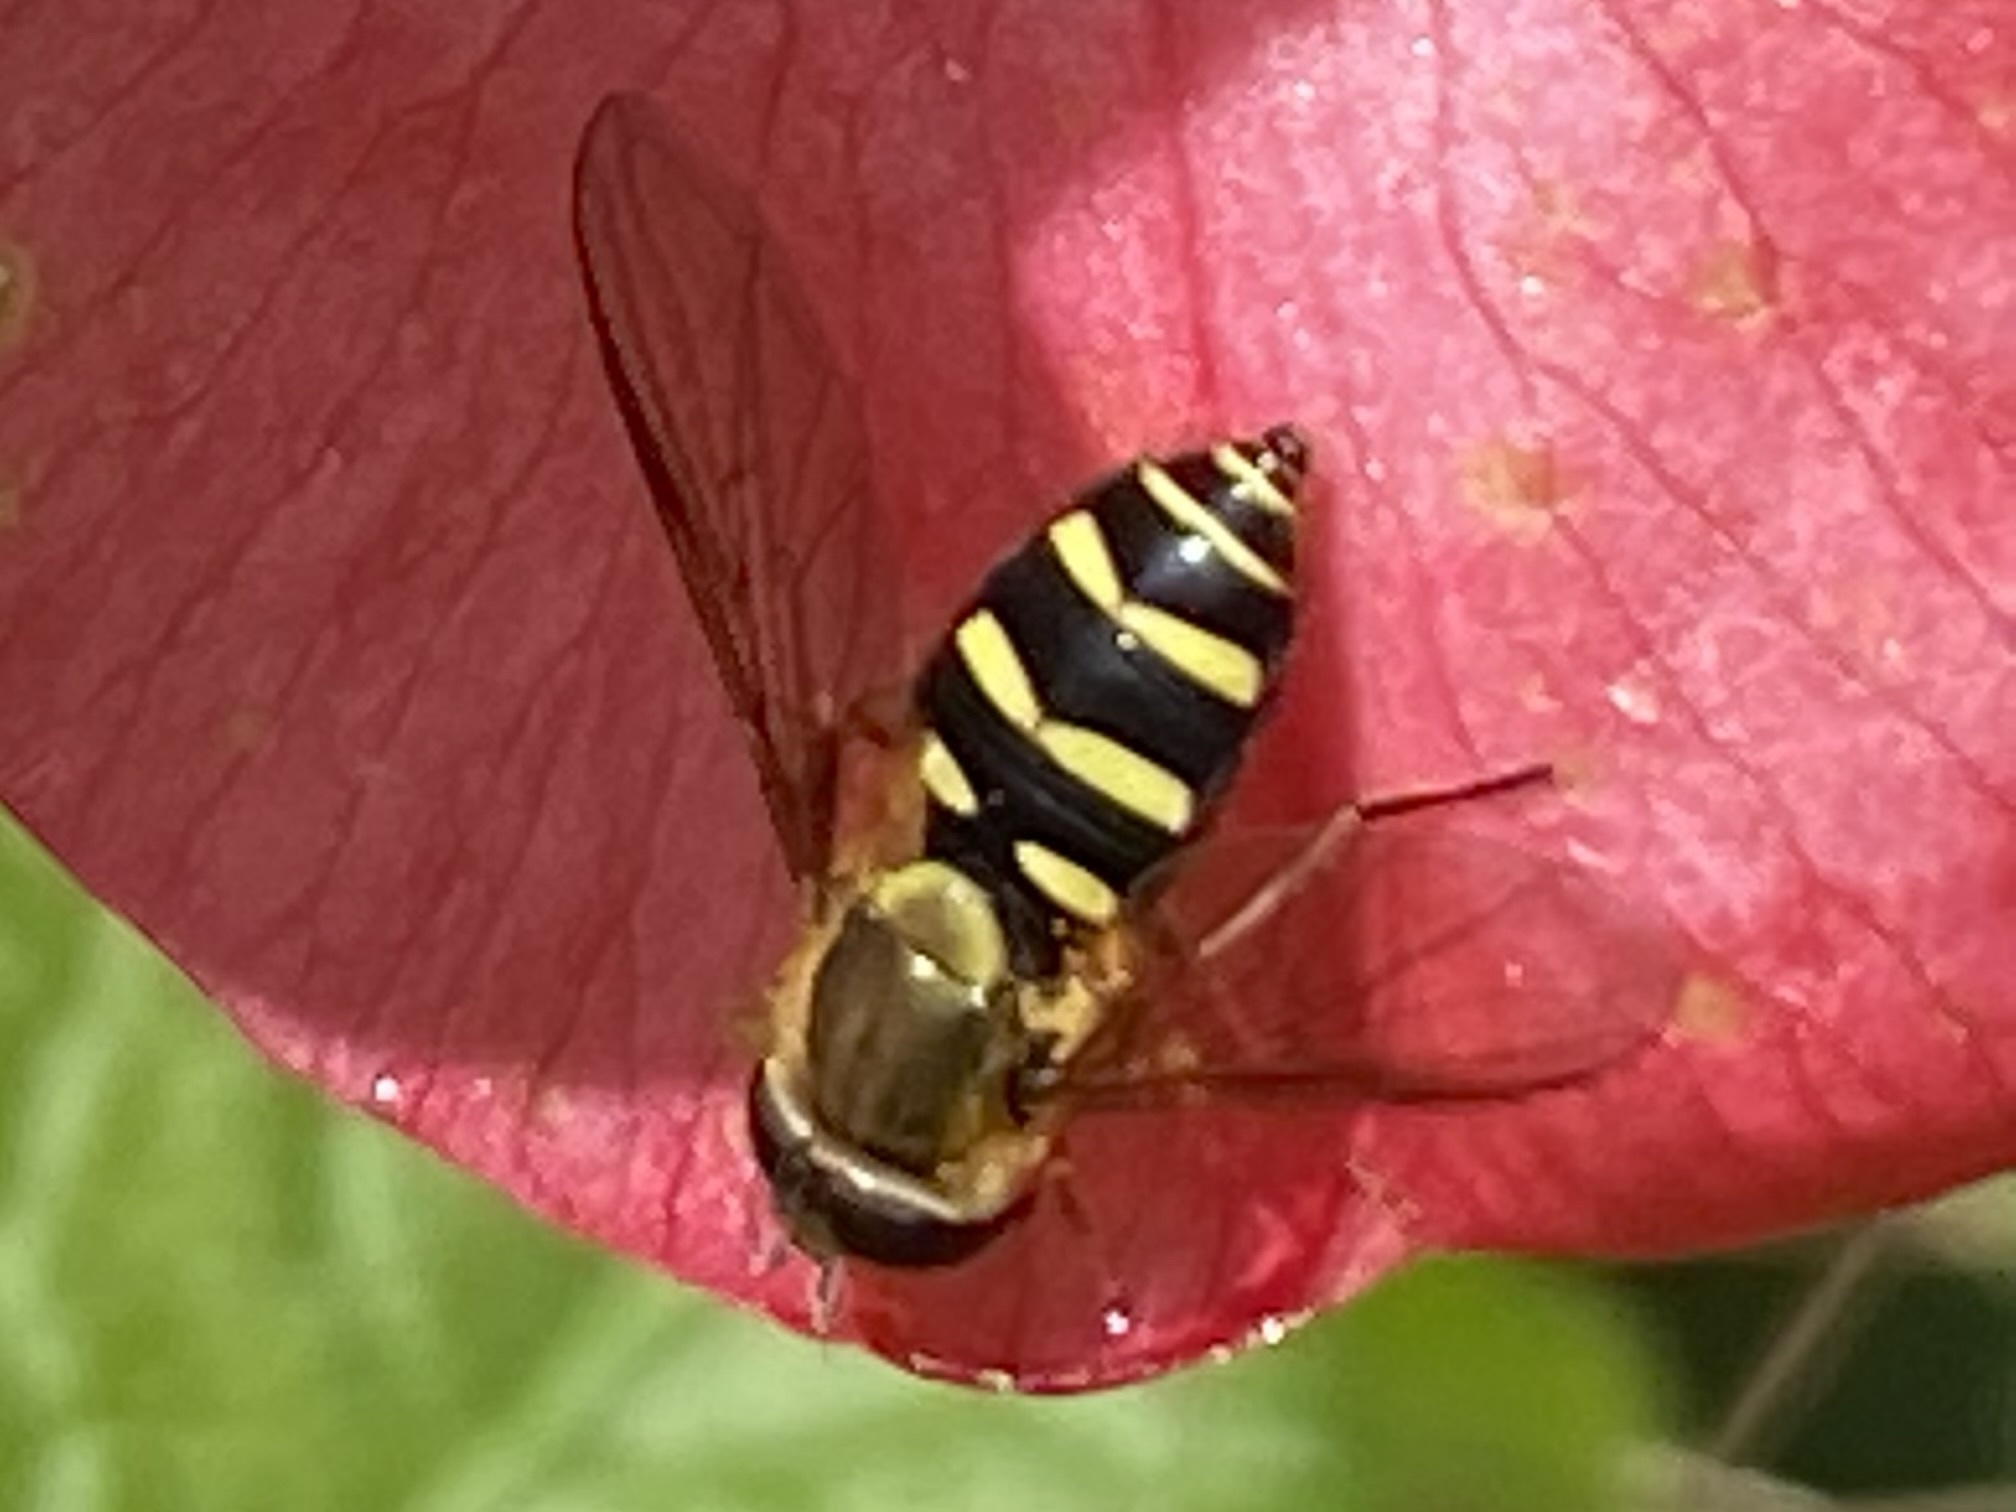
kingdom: Animalia
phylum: Arthropoda
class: Insecta
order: Diptera
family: Syrphidae
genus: Syrphus
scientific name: Syrphus opinator
